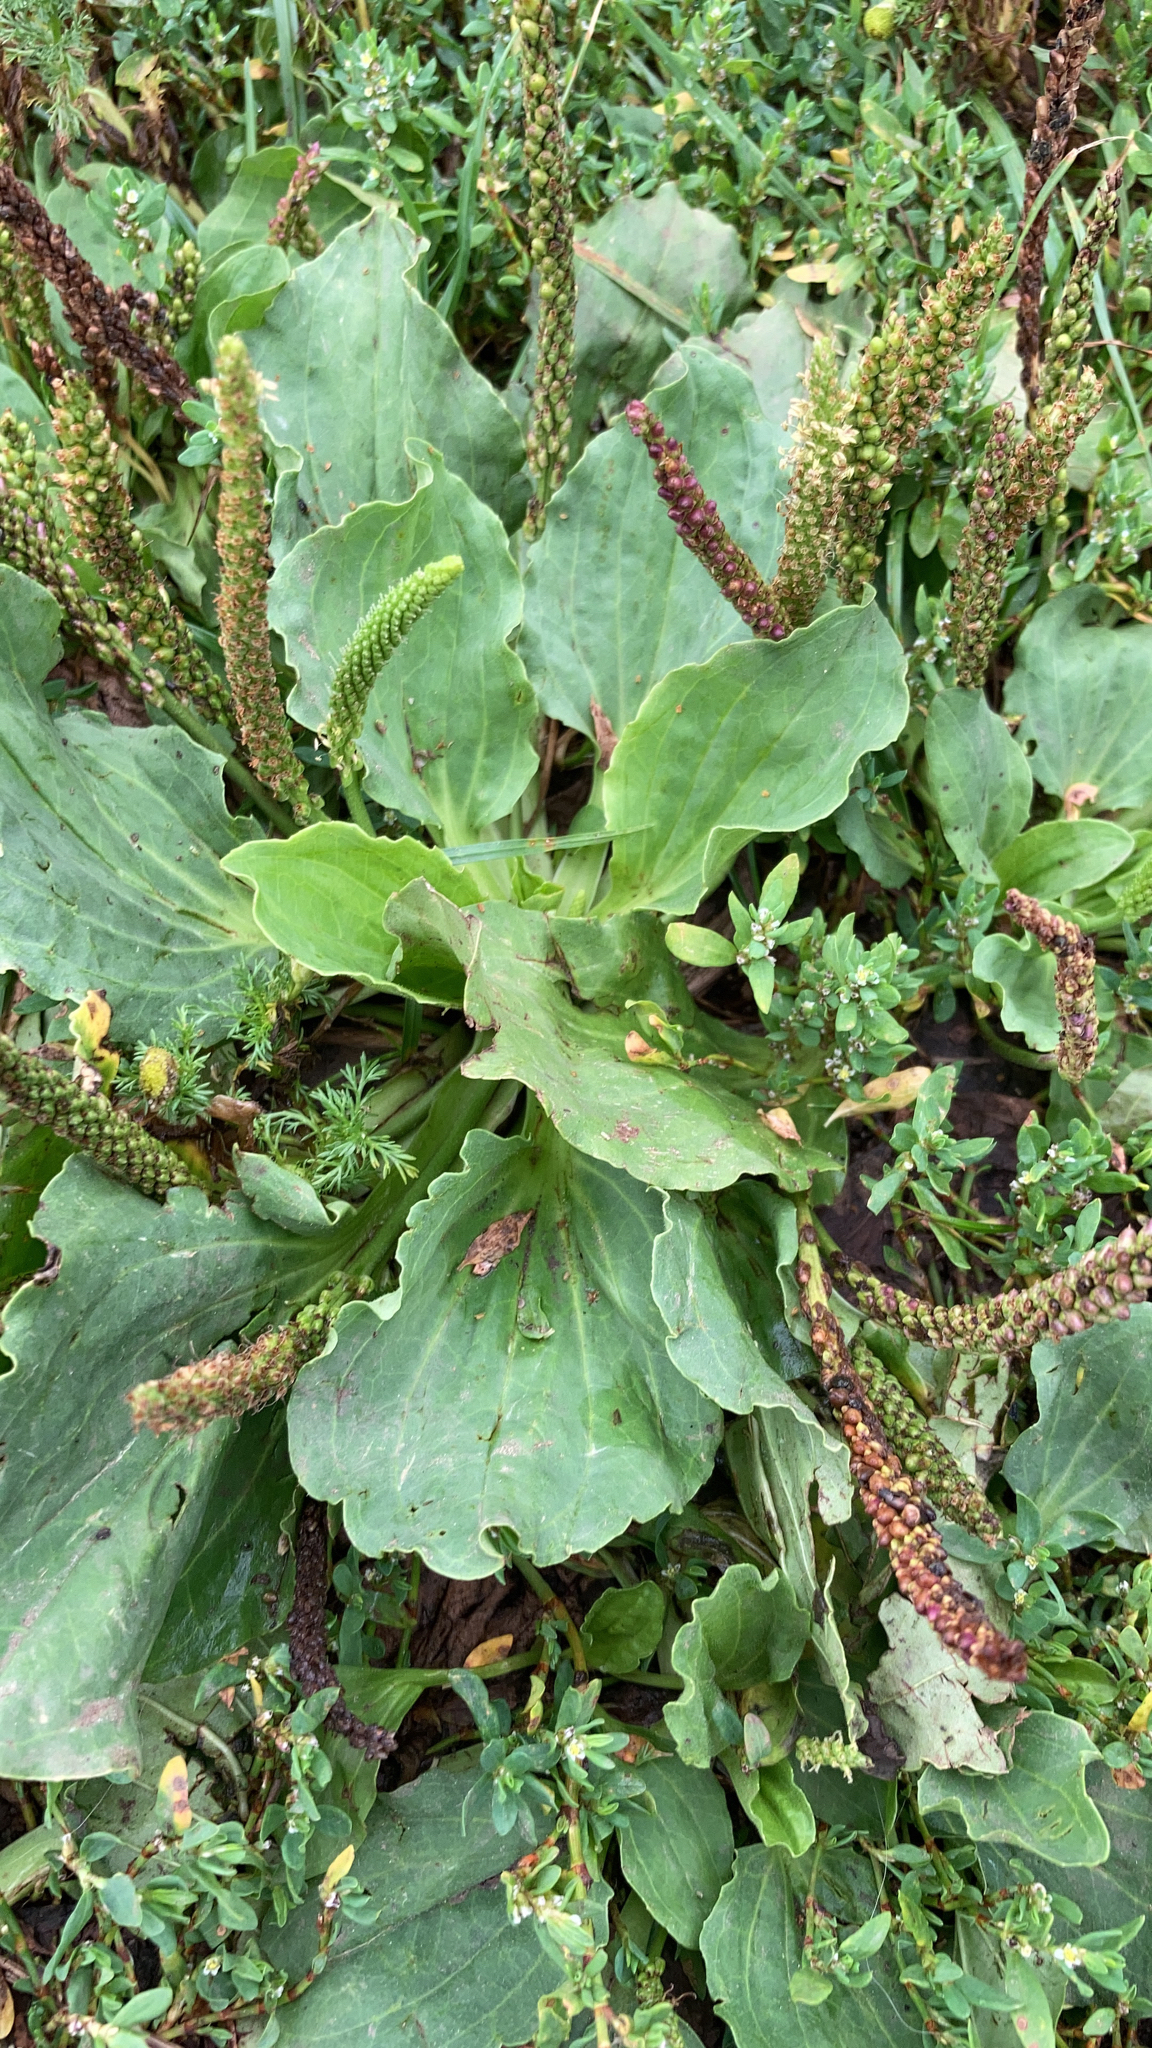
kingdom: Plantae
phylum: Tracheophyta
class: Magnoliopsida
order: Lamiales
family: Plantaginaceae
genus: Plantago
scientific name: Plantago major
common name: Common plantain
